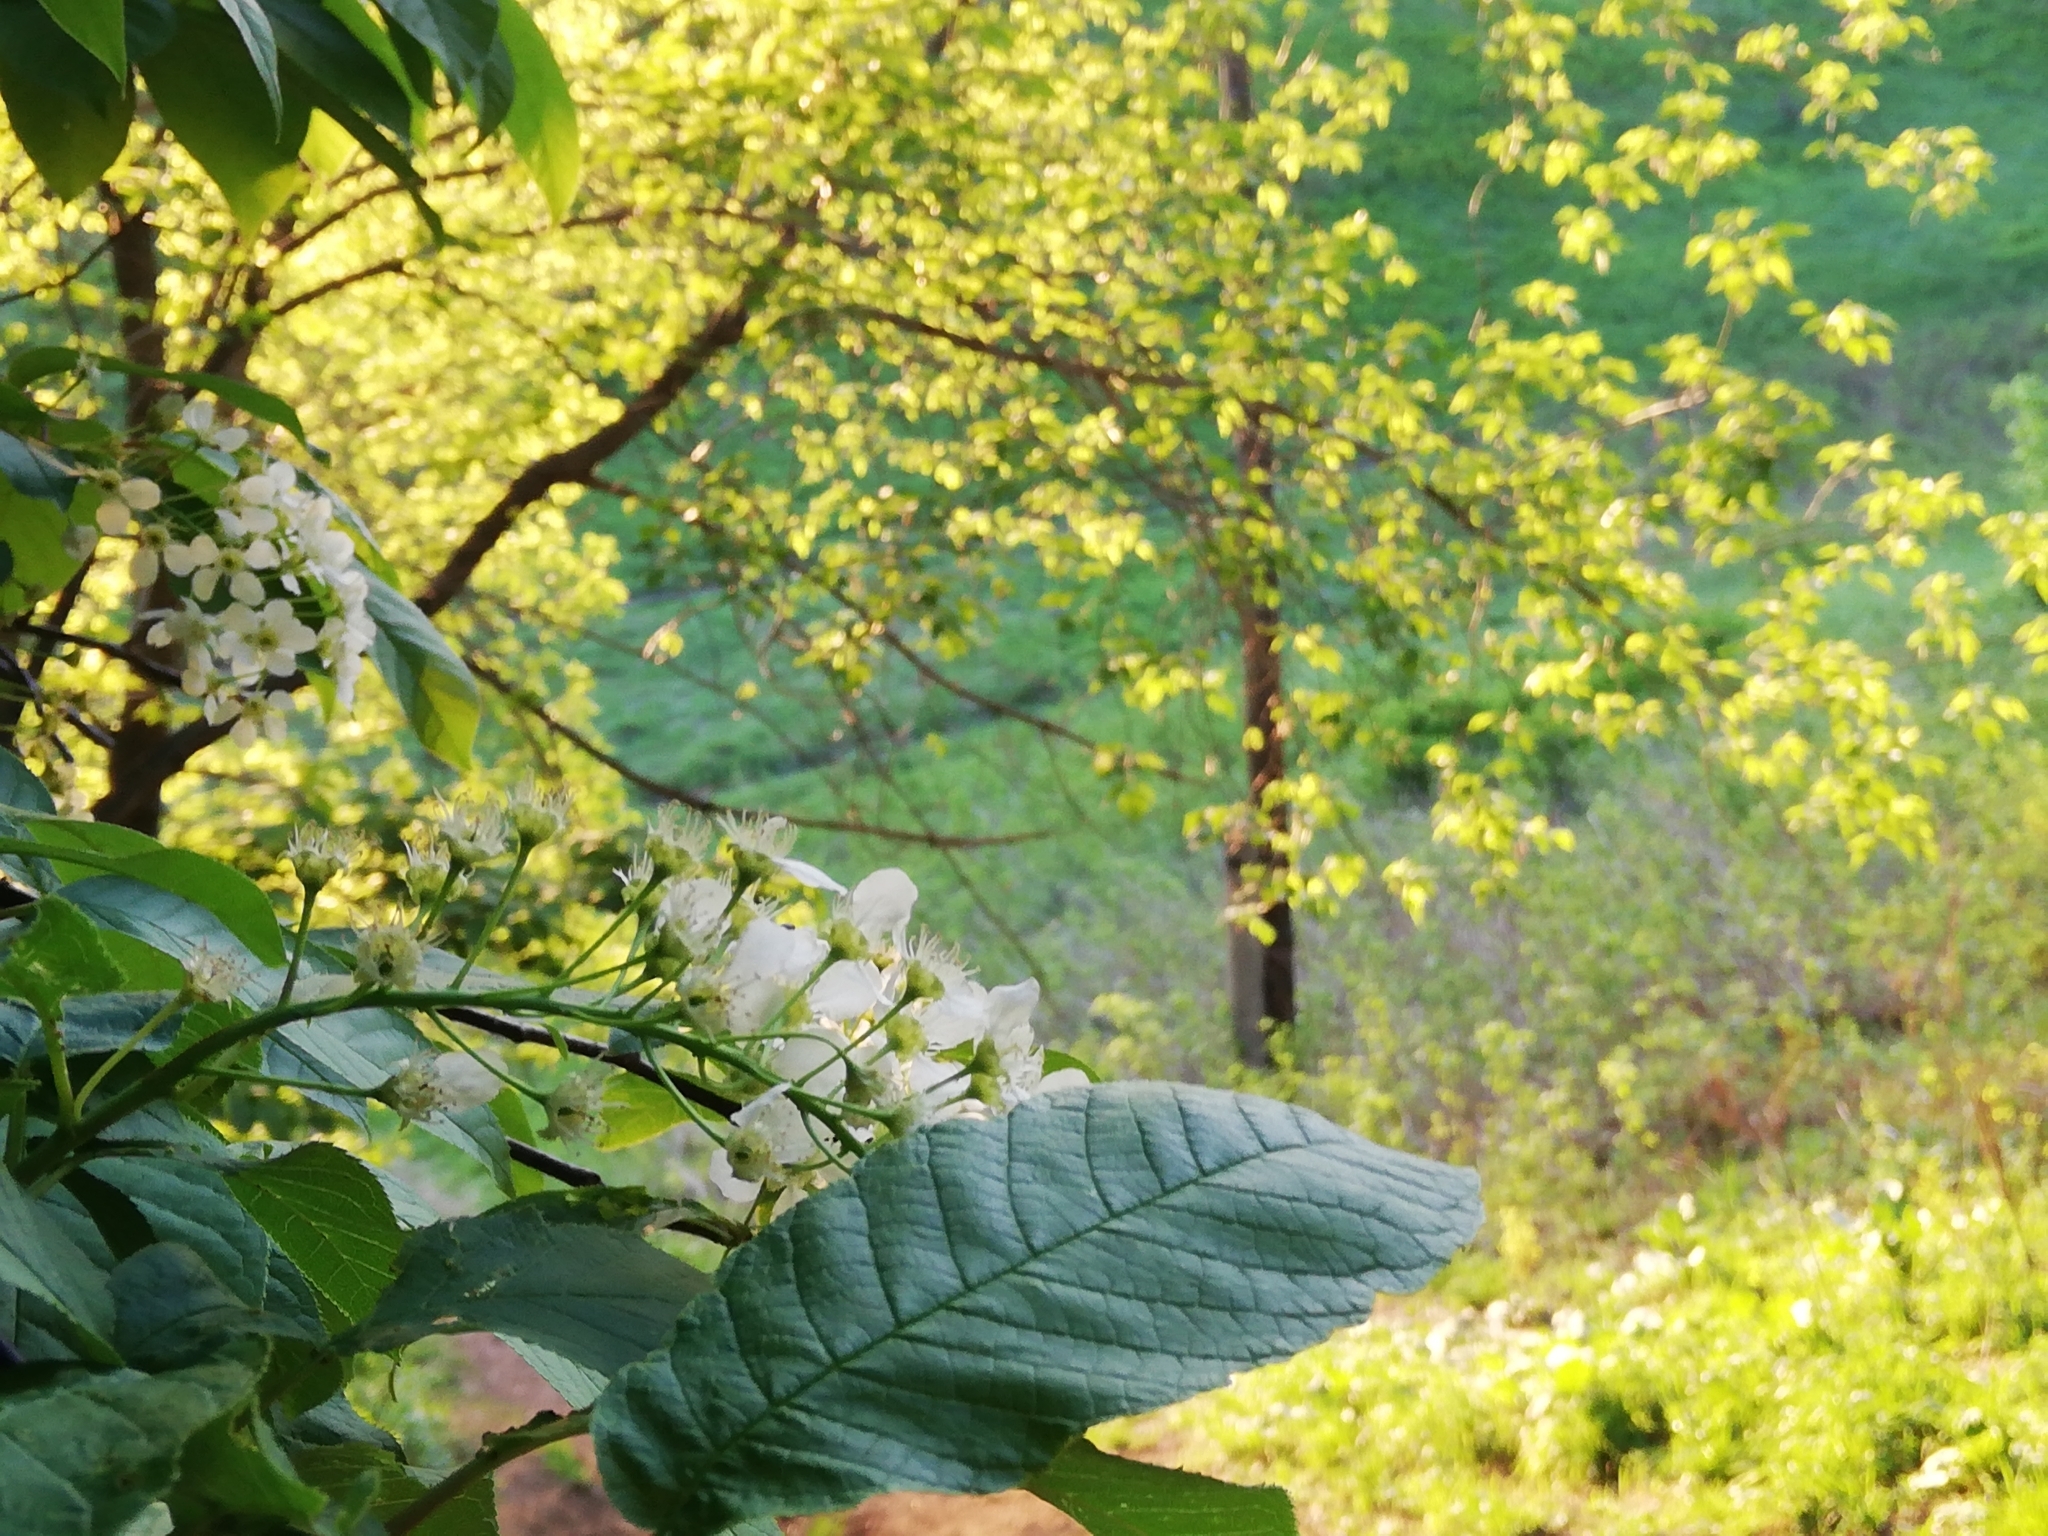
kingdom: Plantae
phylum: Tracheophyta
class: Magnoliopsida
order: Rosales
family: Rosaceae
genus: Prunus
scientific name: Prunus padus
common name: Bird cherry
